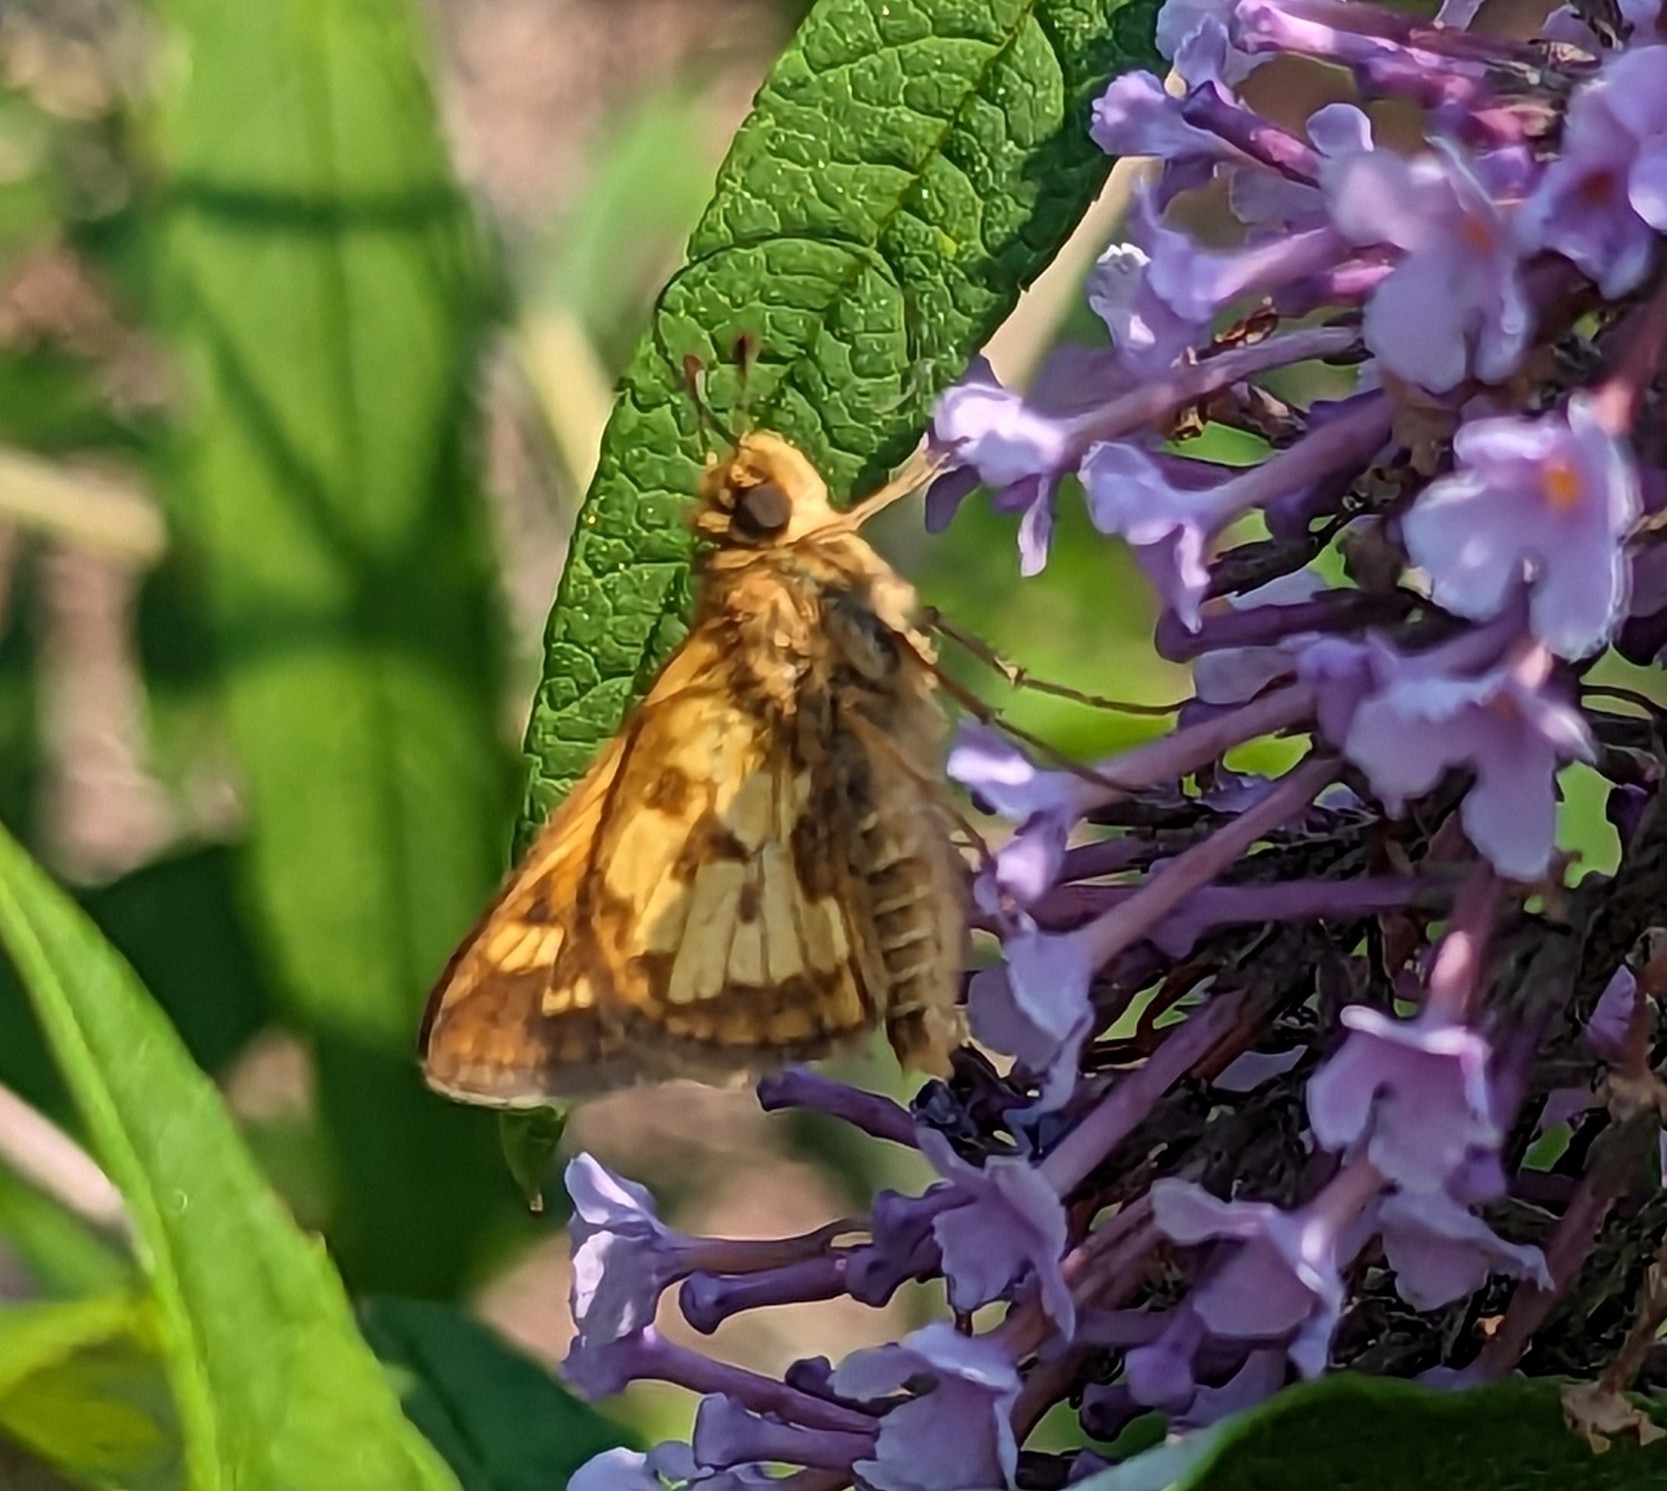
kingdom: Animalia
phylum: Arthropoda
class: Insecta
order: Lepidoptera
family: Hesperiidae
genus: Polites
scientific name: Polites coras
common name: Peck's skipper
